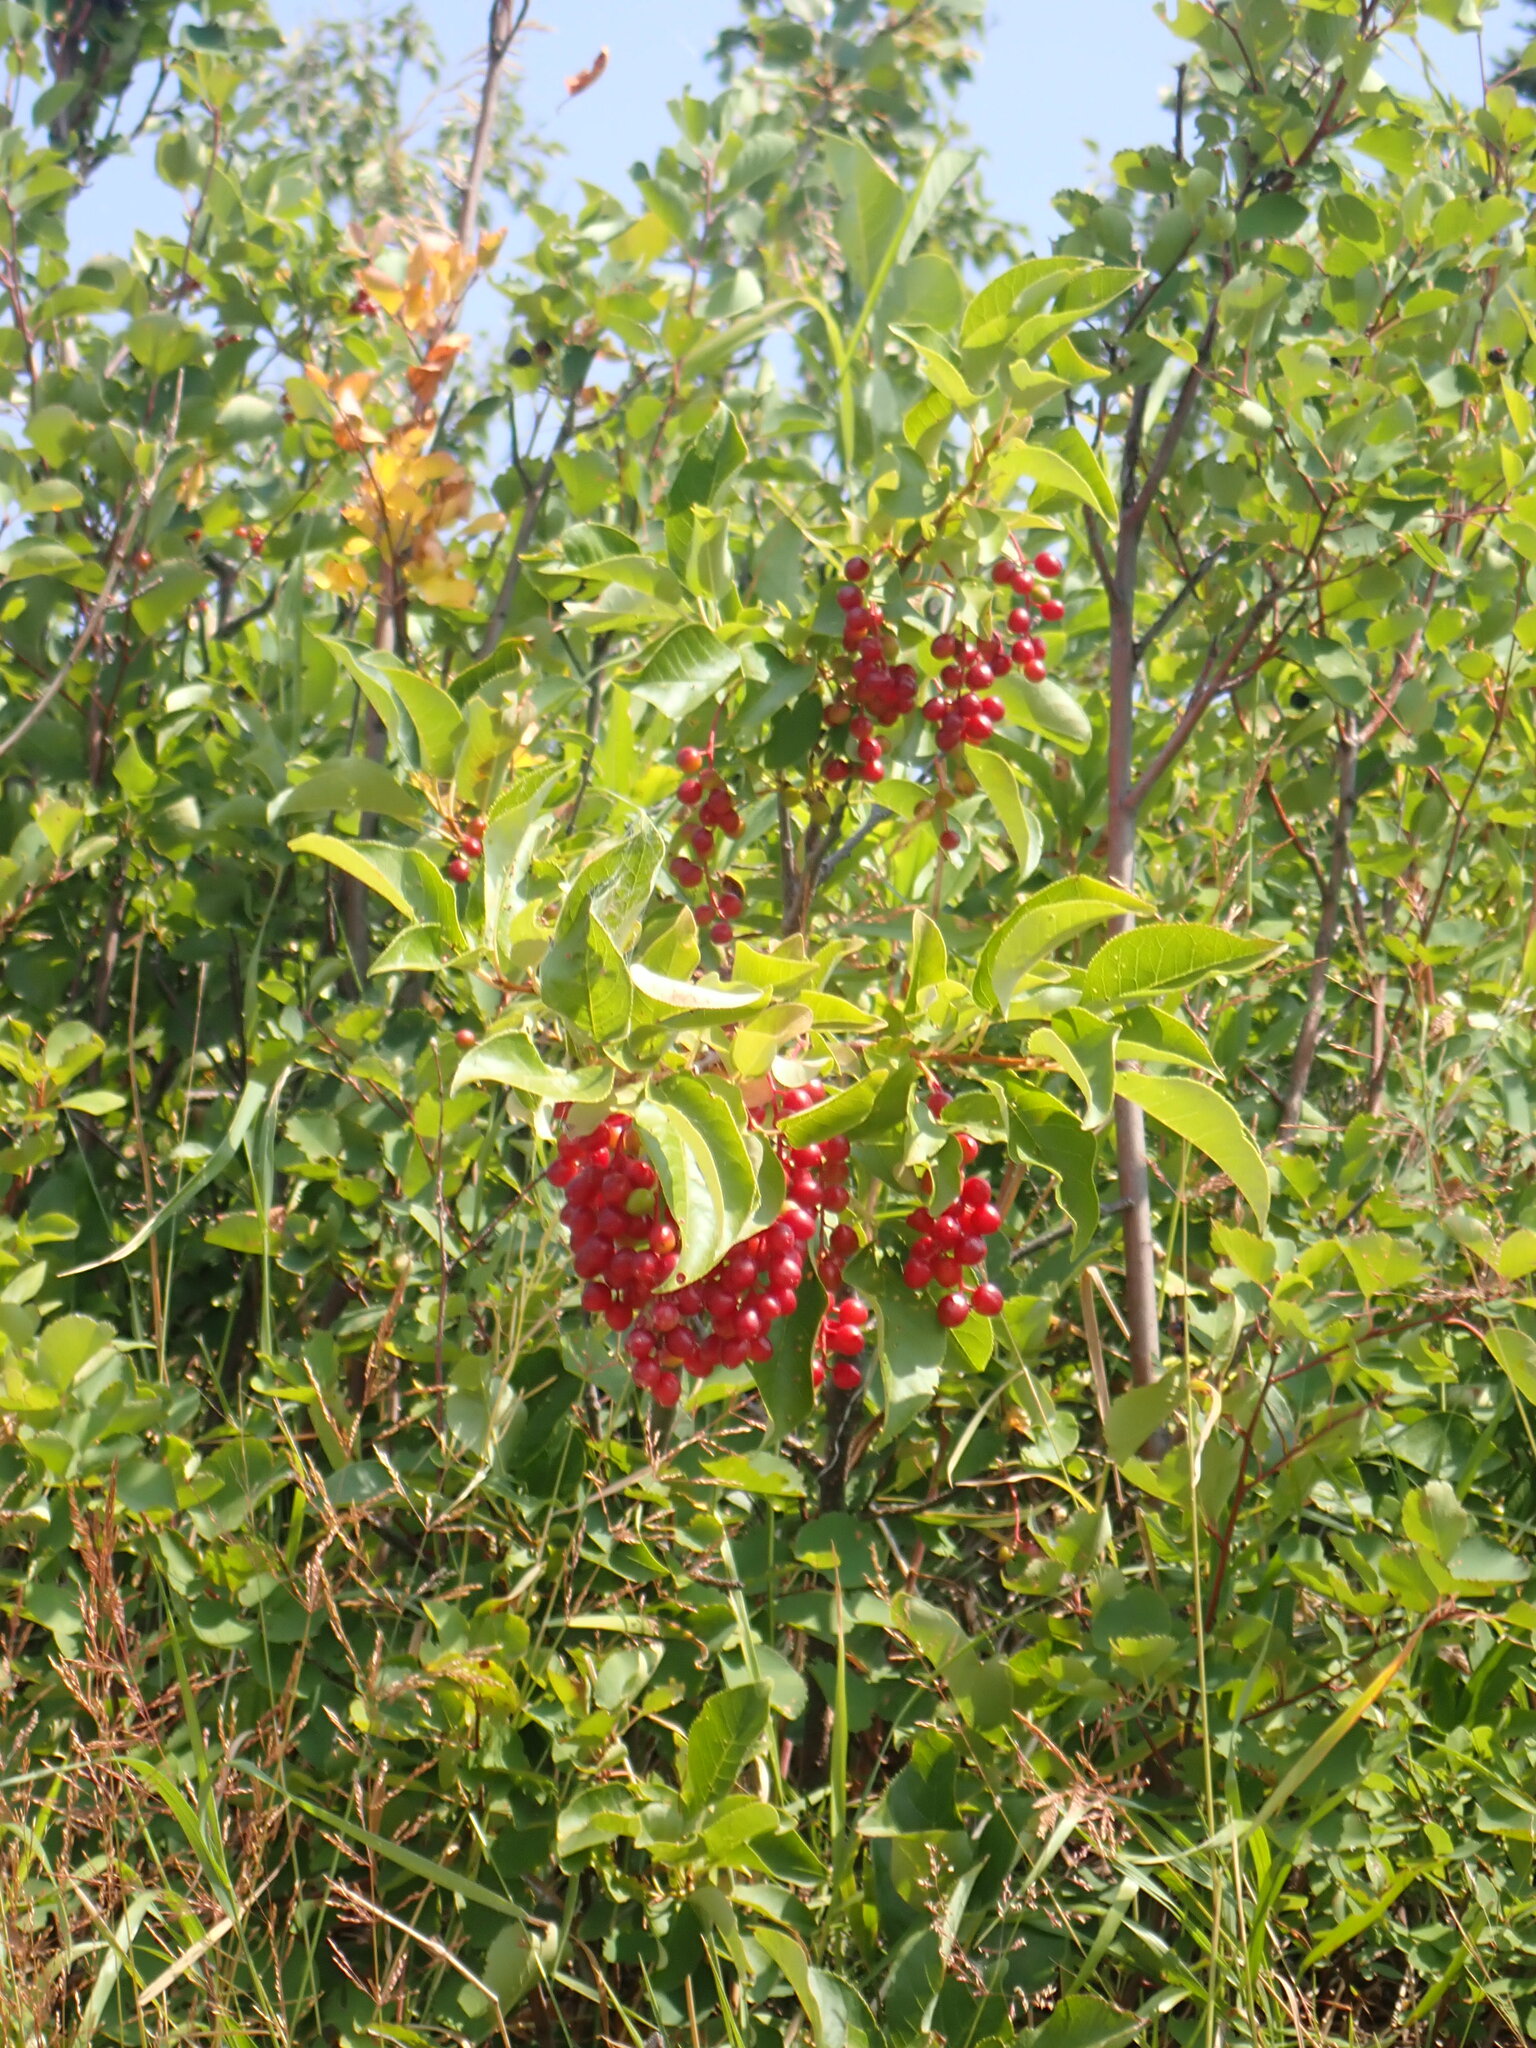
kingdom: Plantae
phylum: Tracheophyta
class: Magnoliopsida
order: Rosales
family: Rosaceae
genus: Prunus
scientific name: Prunus virginiana
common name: Chokecherry
